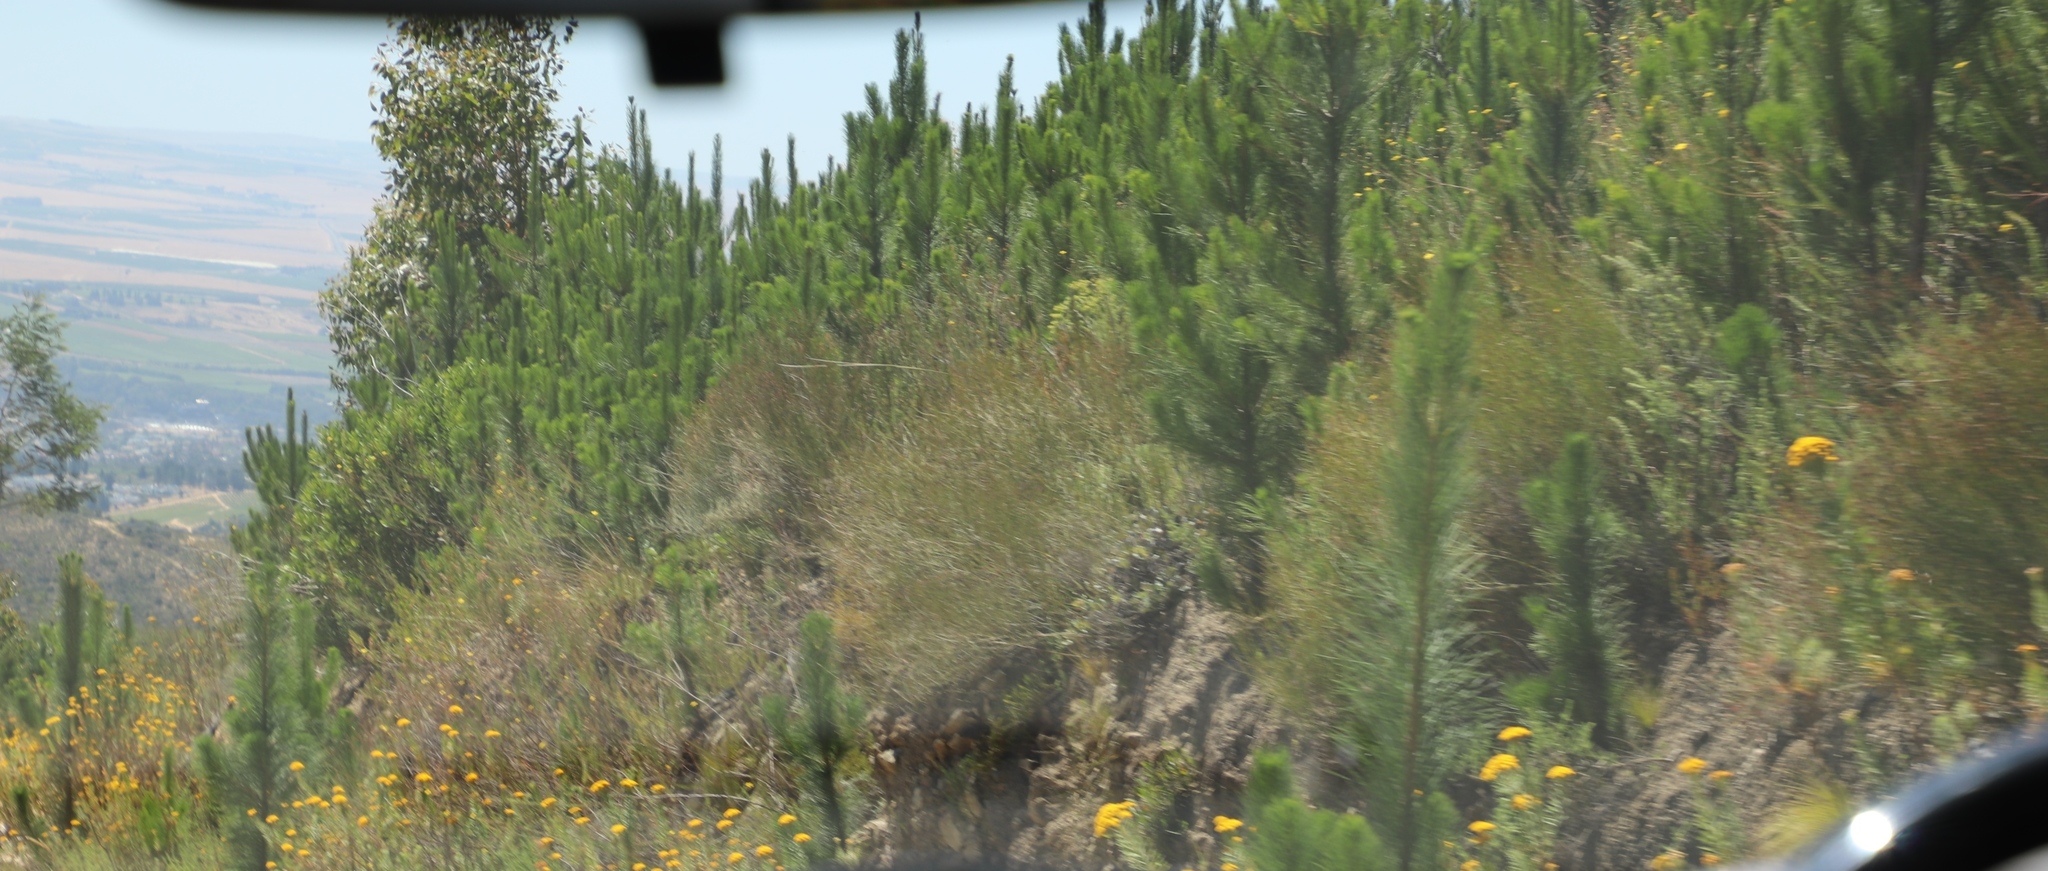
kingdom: Plantae
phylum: Tracheophyta
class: Magnoliopsida
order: Asterales
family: Asteraceae
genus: Athanasia
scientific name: Athanasia crithmifolia
